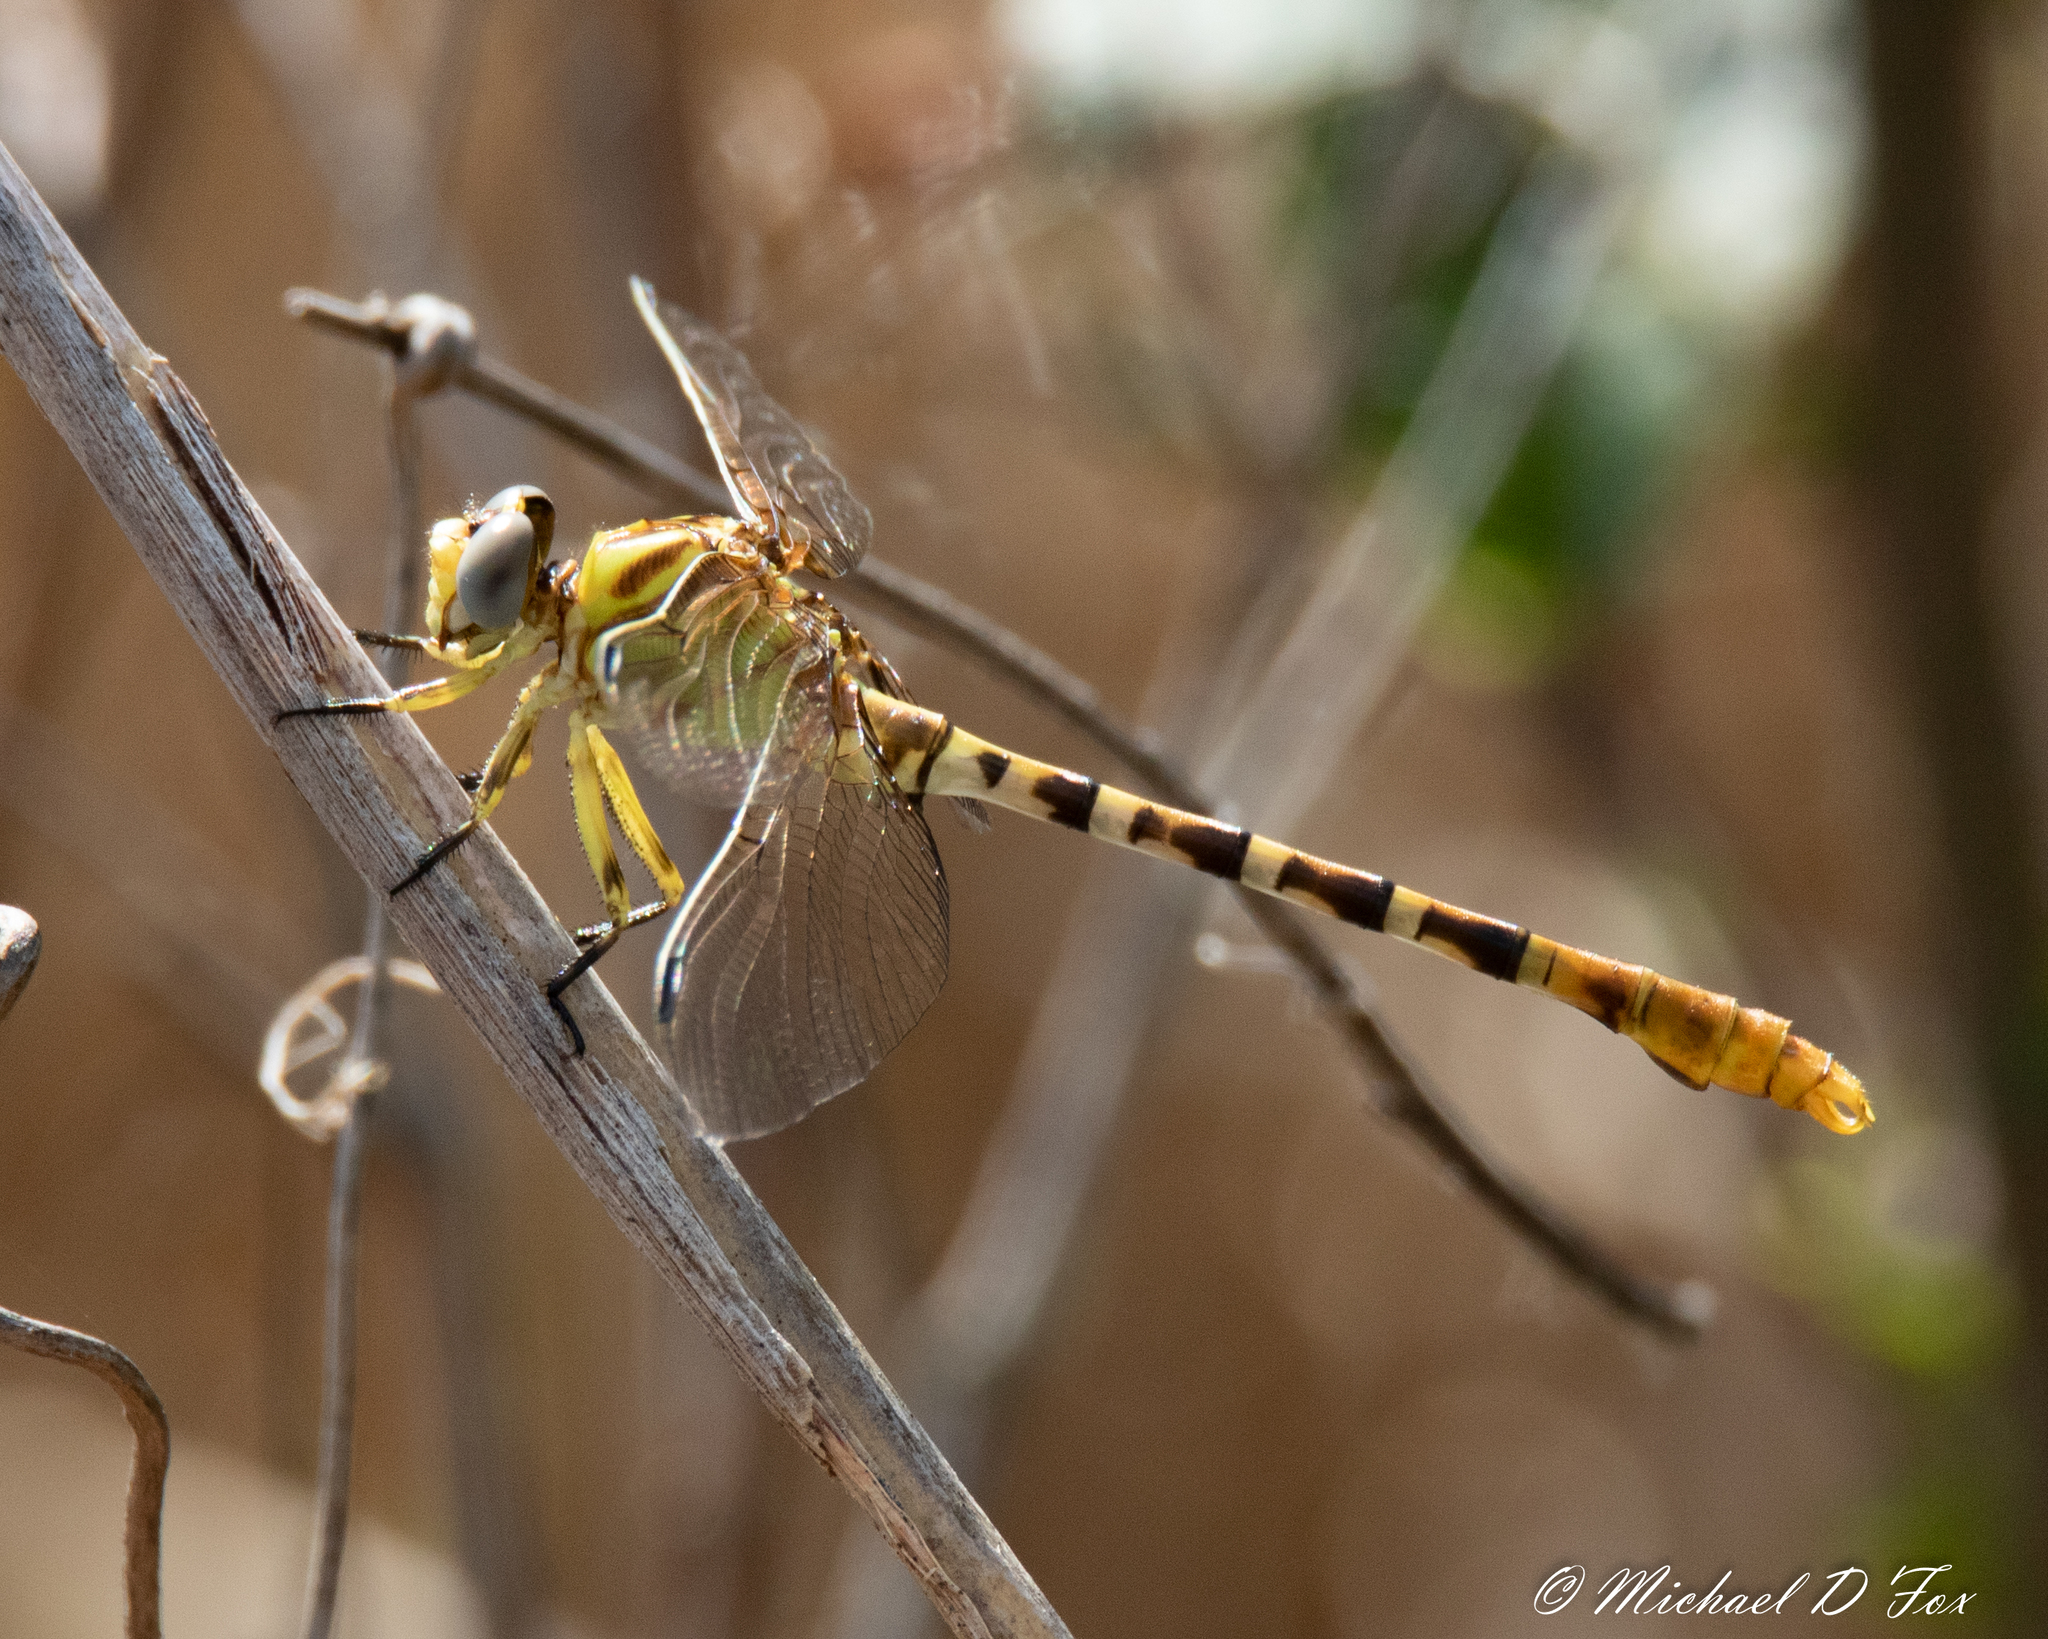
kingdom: Animalia
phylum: Arthropoda
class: Insecta
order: Odonata
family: Gomphidae
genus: Erpetogomphus
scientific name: Erpetogomphus designatus
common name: Eastern ringtail
